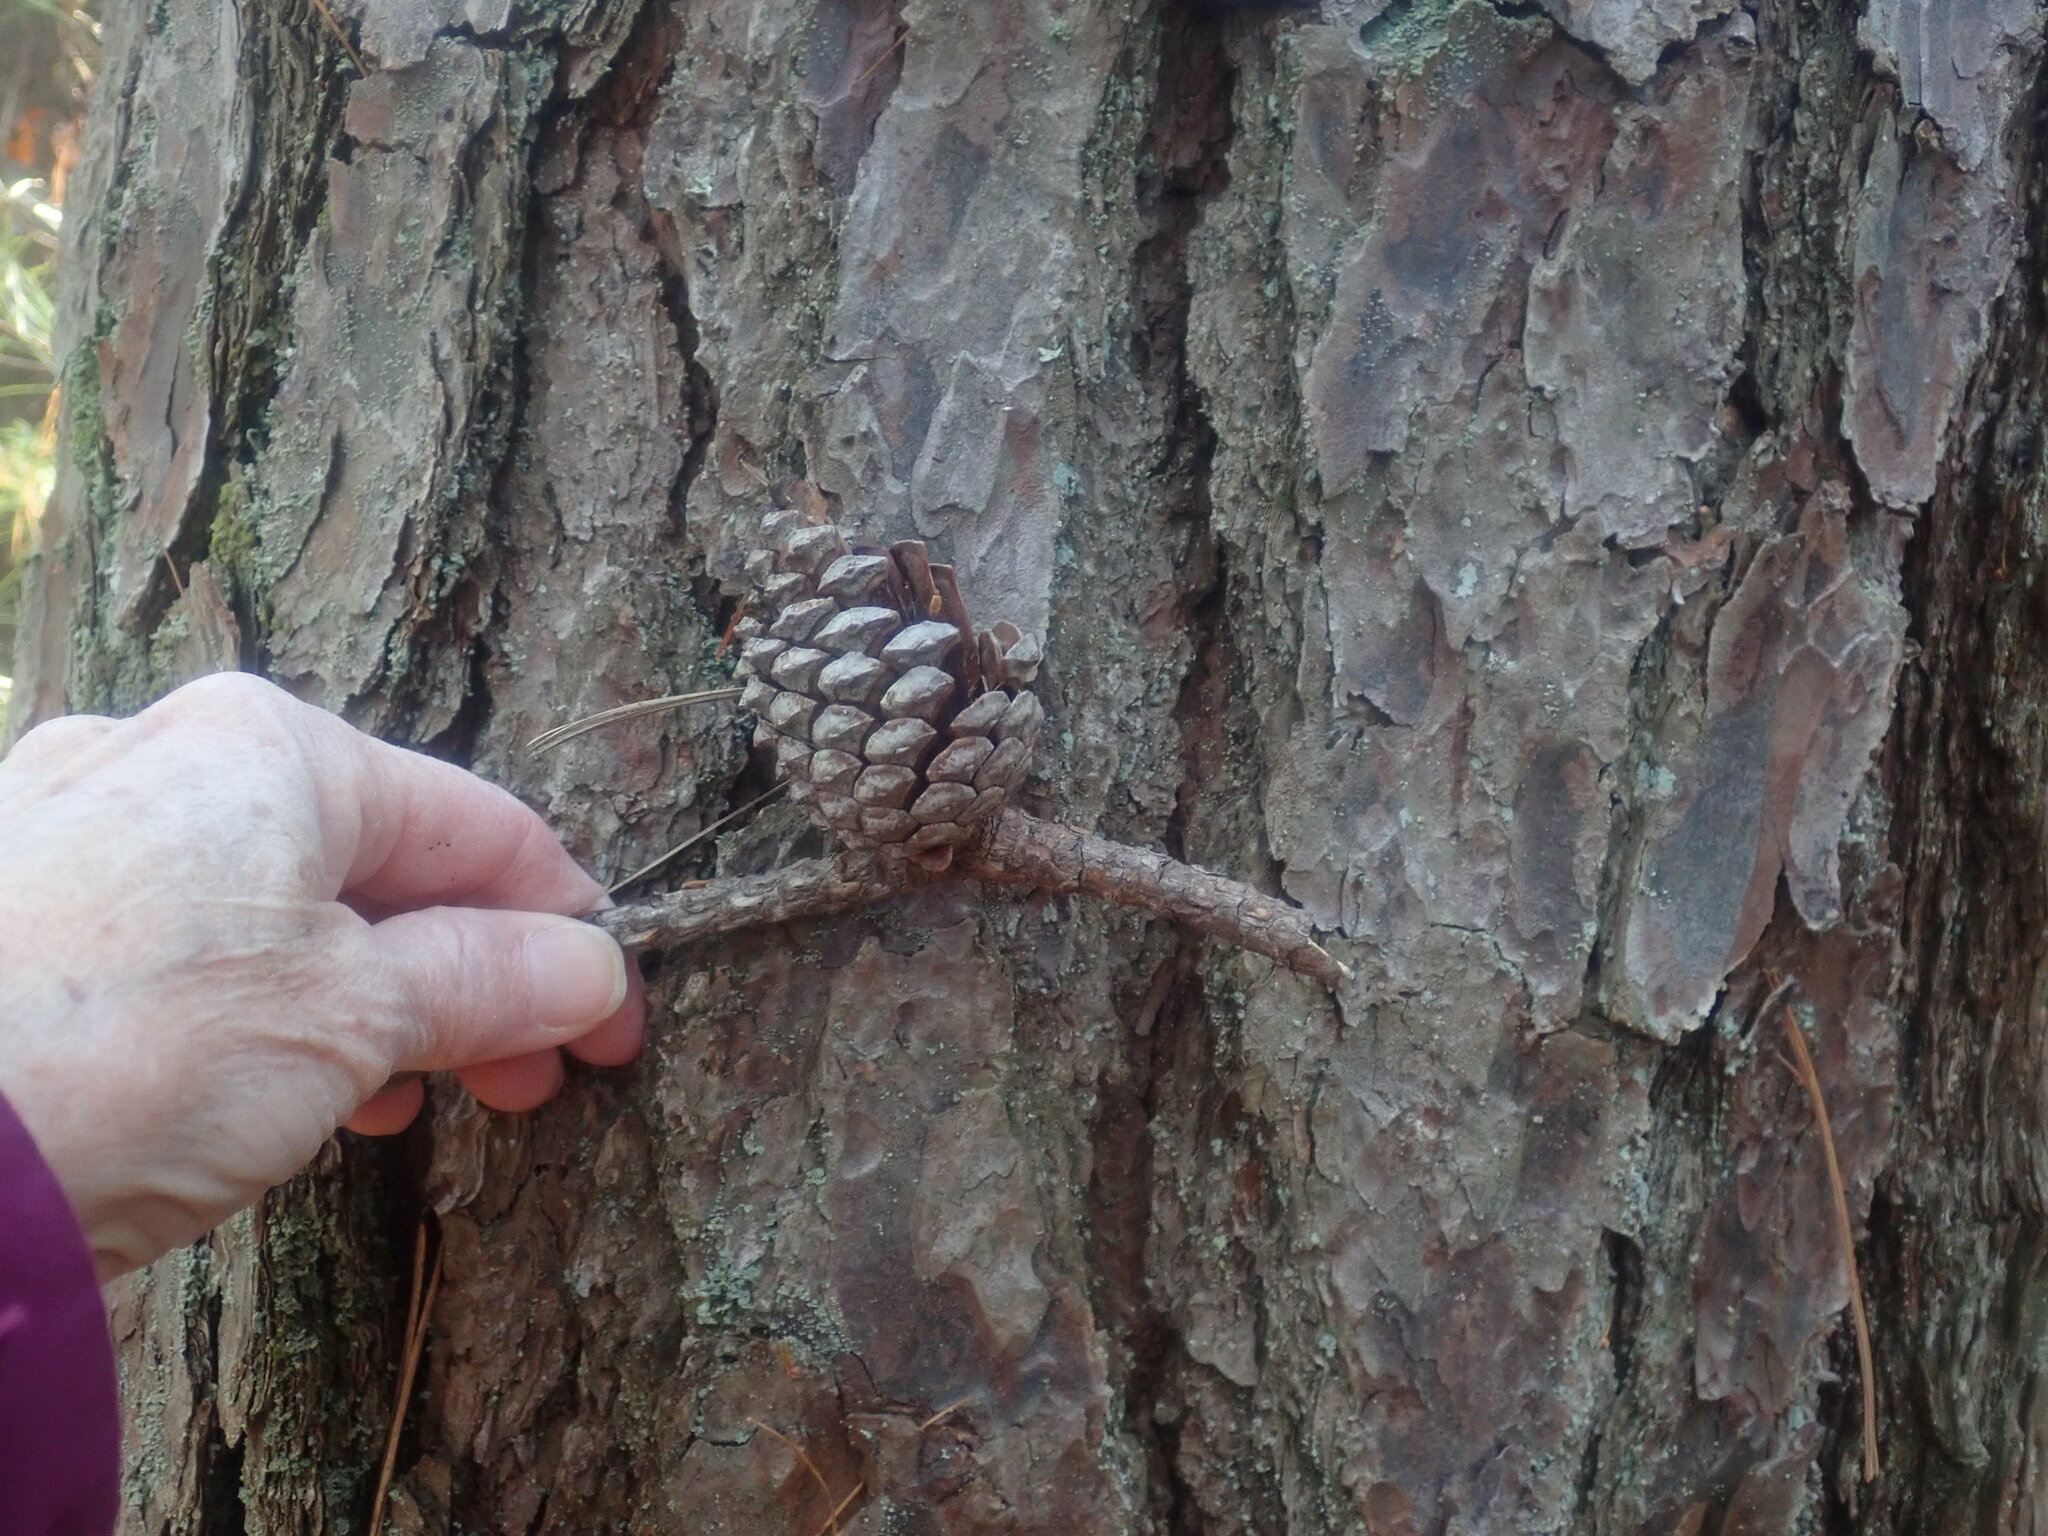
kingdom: Plantae
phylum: Tracheophyta
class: Pinopsida
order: Pinales
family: Pinaceae
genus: Pinus
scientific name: Pinus rigida
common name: Pitch pine
